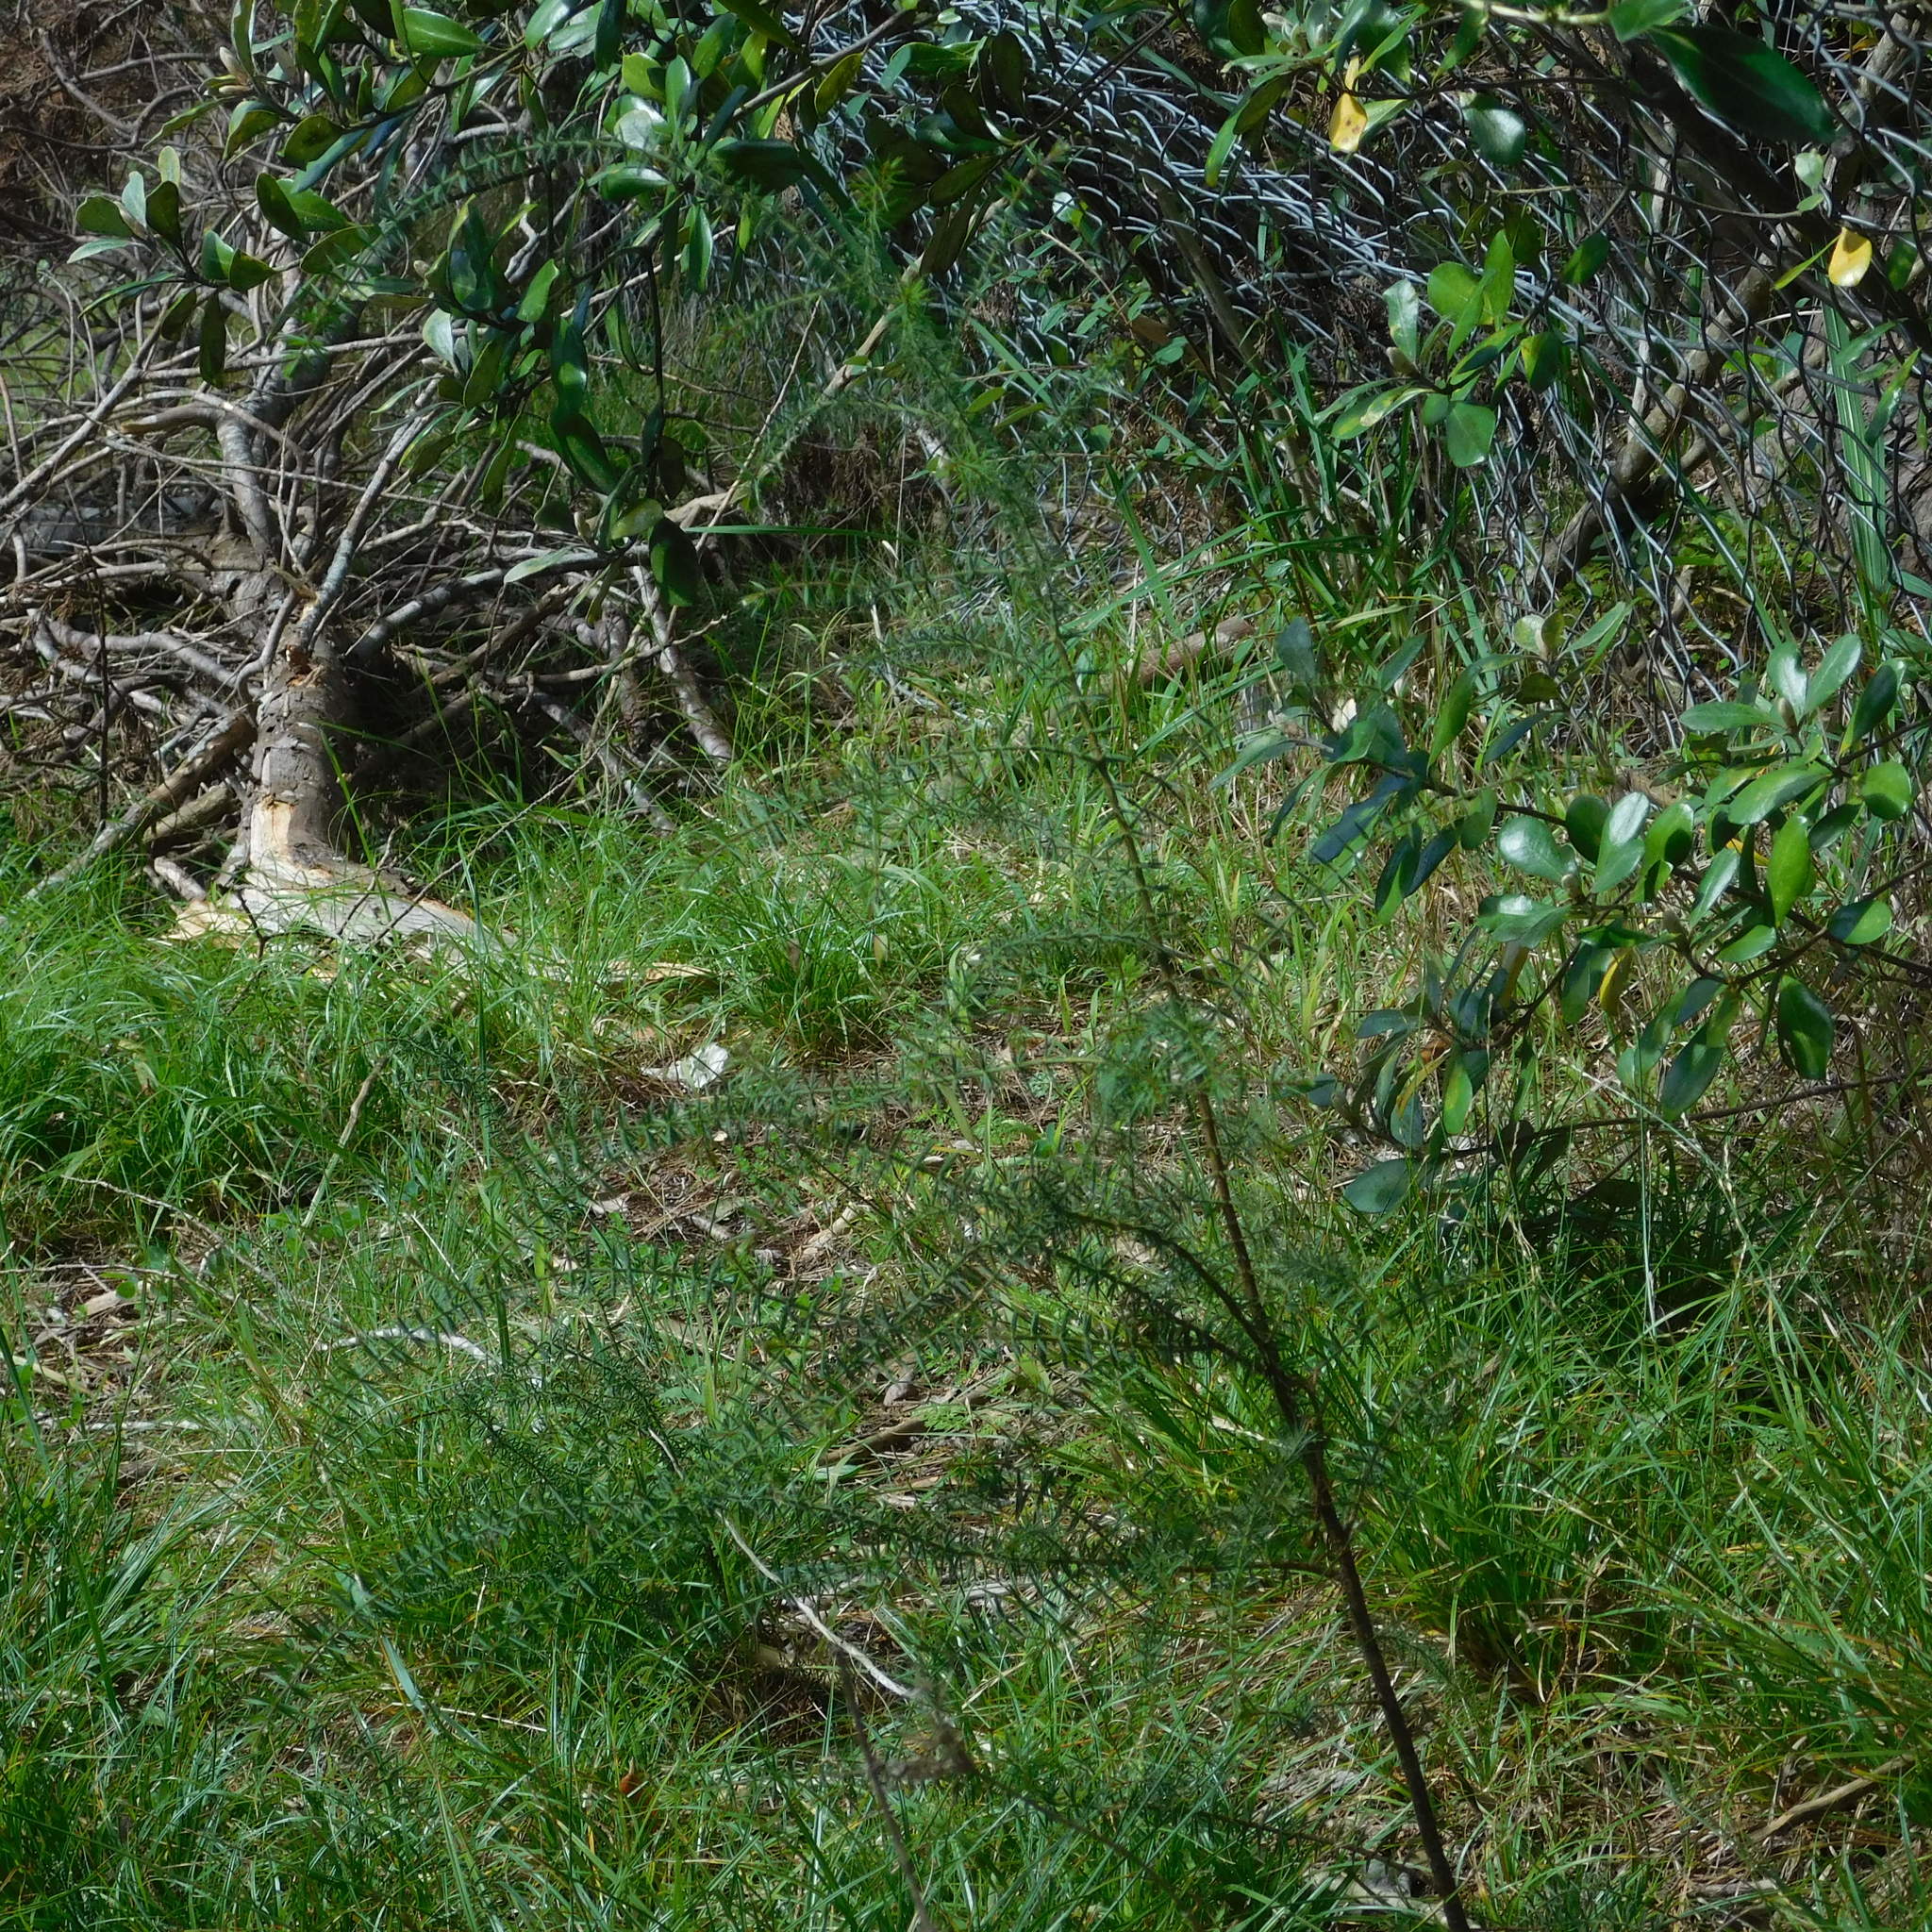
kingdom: Plantae
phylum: Tracheophyta
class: Magnoliopsida
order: Fabales
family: Fabaceae
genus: Acacia
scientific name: Acacia verticillata
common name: Prickly moses
